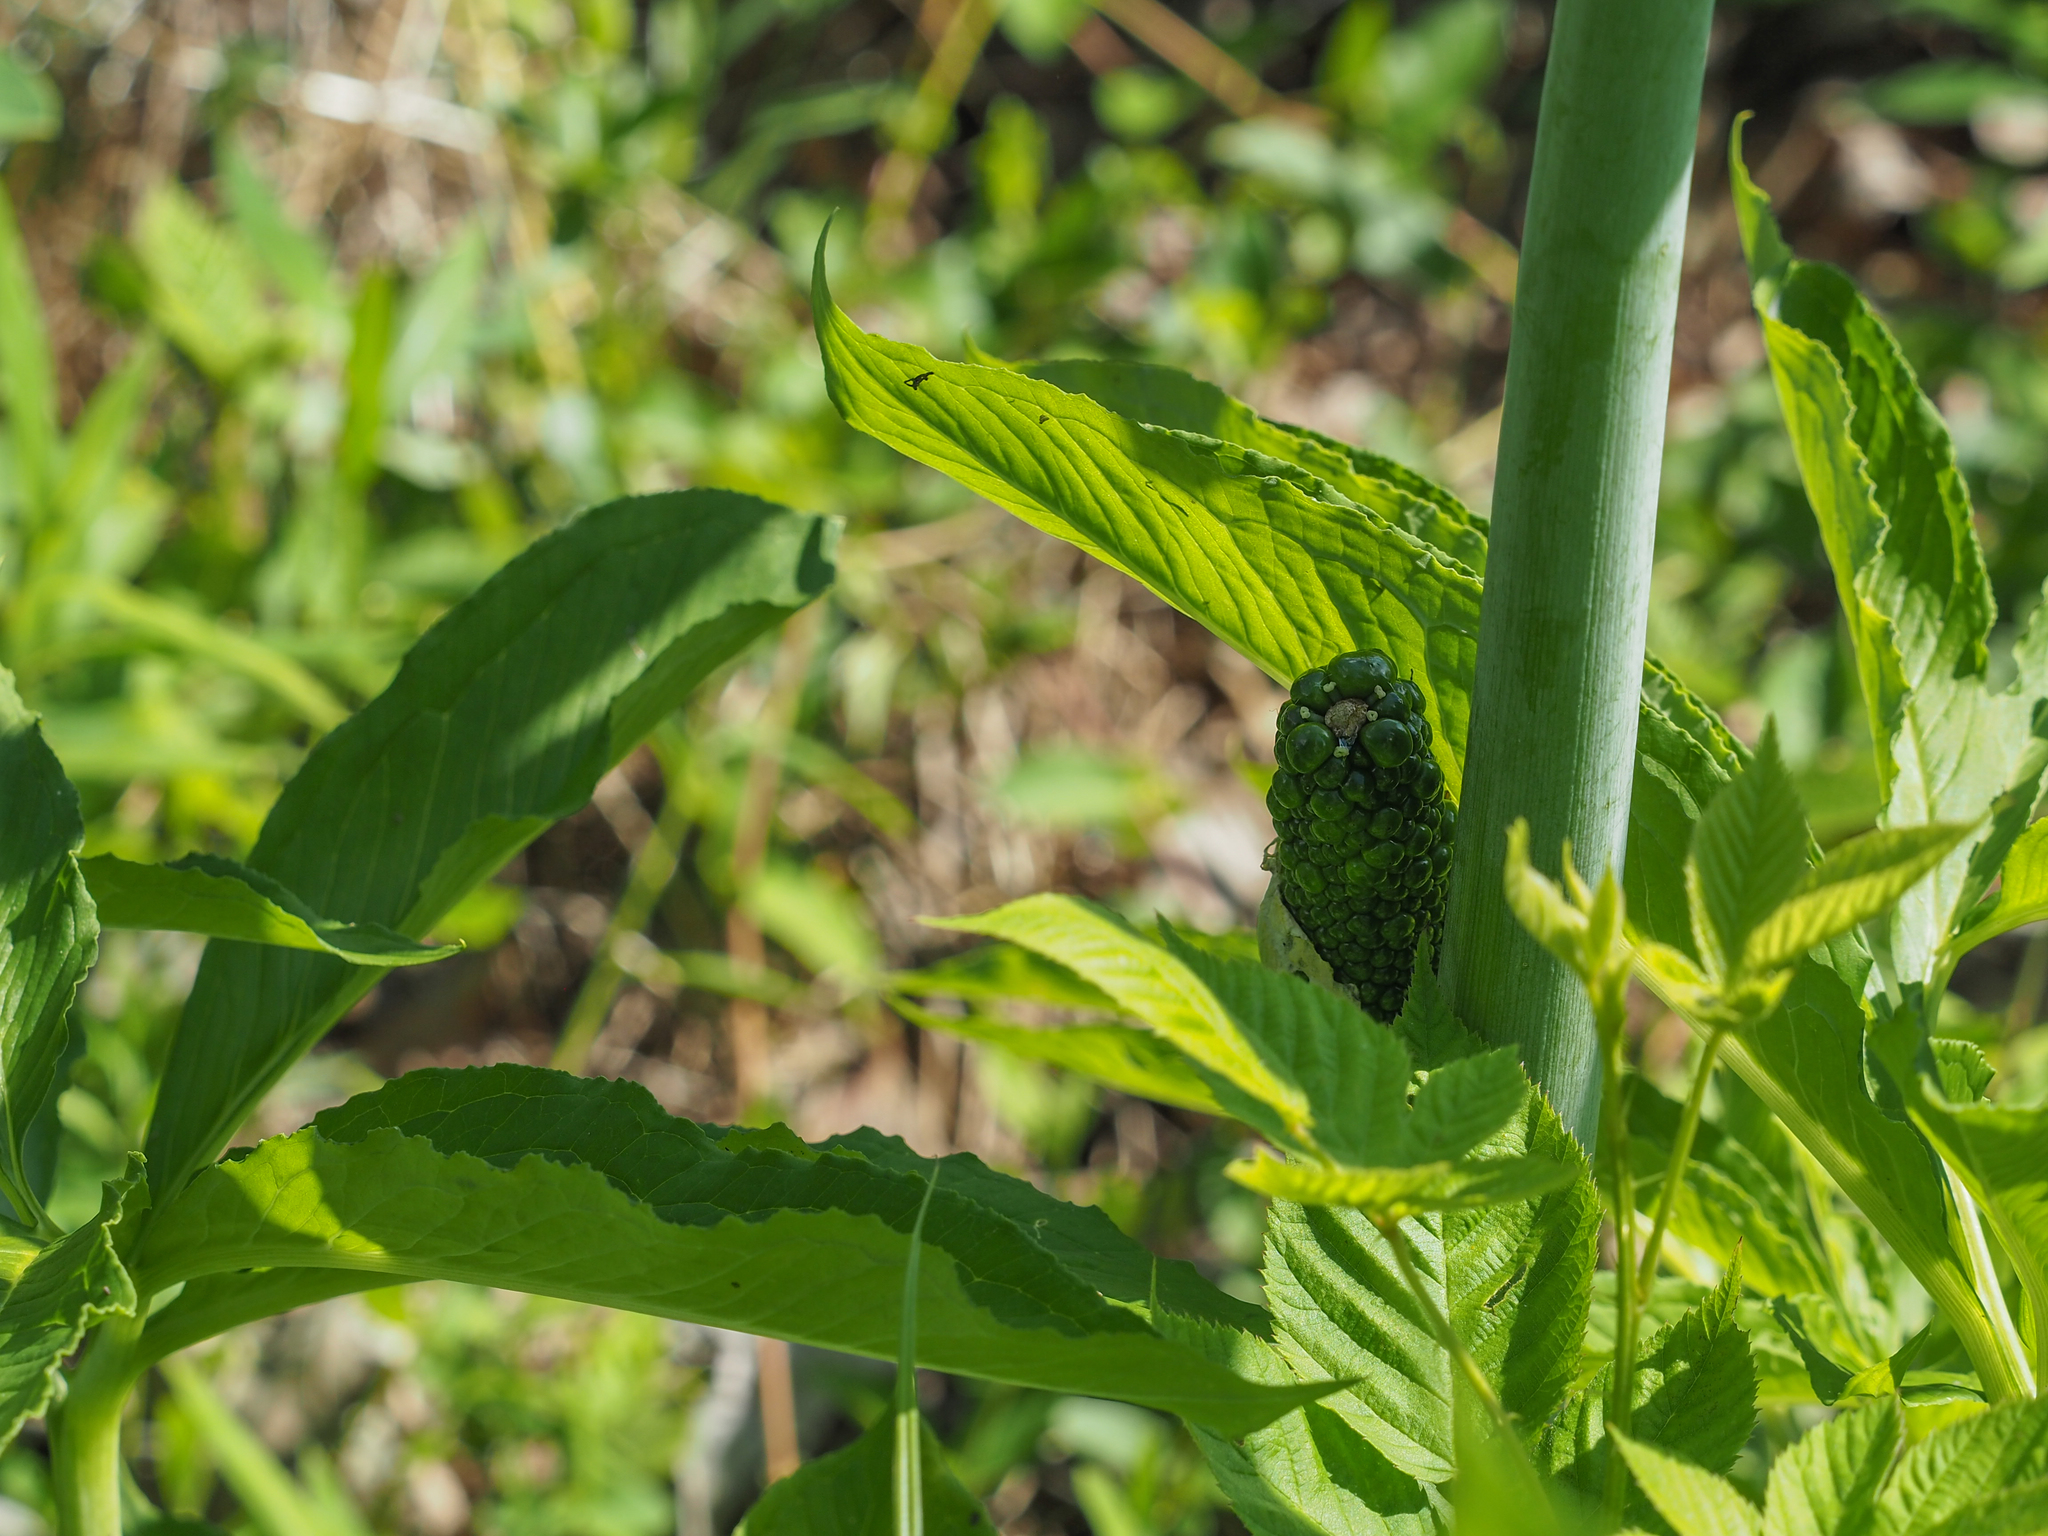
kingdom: Plantae
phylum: Tracheophyta
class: Liliopsida
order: Alismatales
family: Araceae
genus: Arisaema
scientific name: Arisaema dracontium
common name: Dragon-arum
